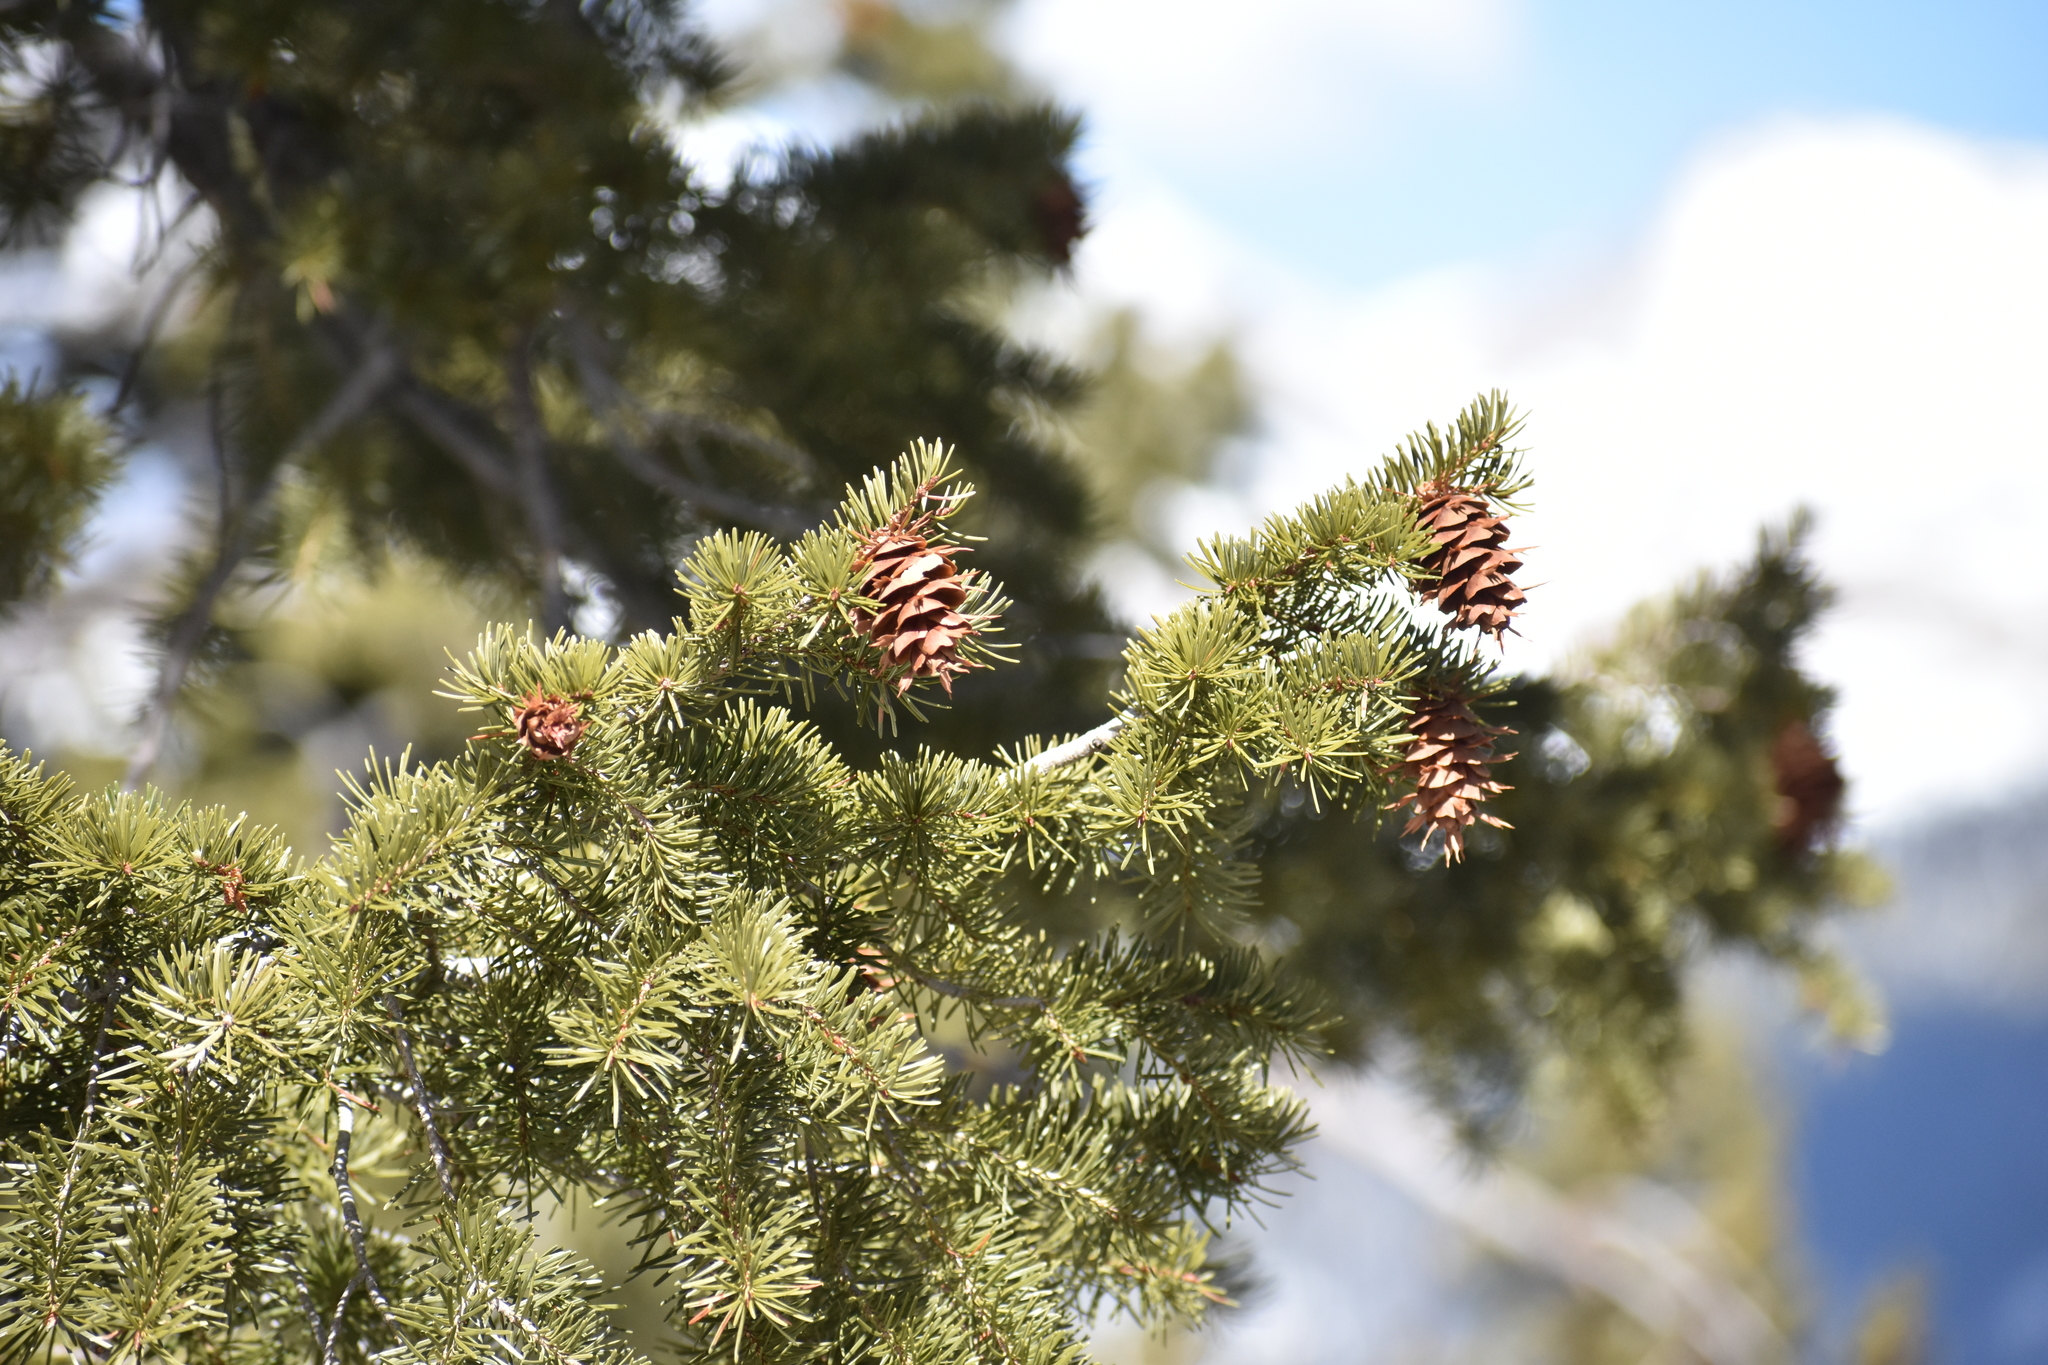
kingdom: Plantae
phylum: Tracheophyta
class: Pinopsida
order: Pinales
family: Pinaceae
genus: Pseudotsuga
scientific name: Pseudotsuga menziesii
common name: Douglas fir
